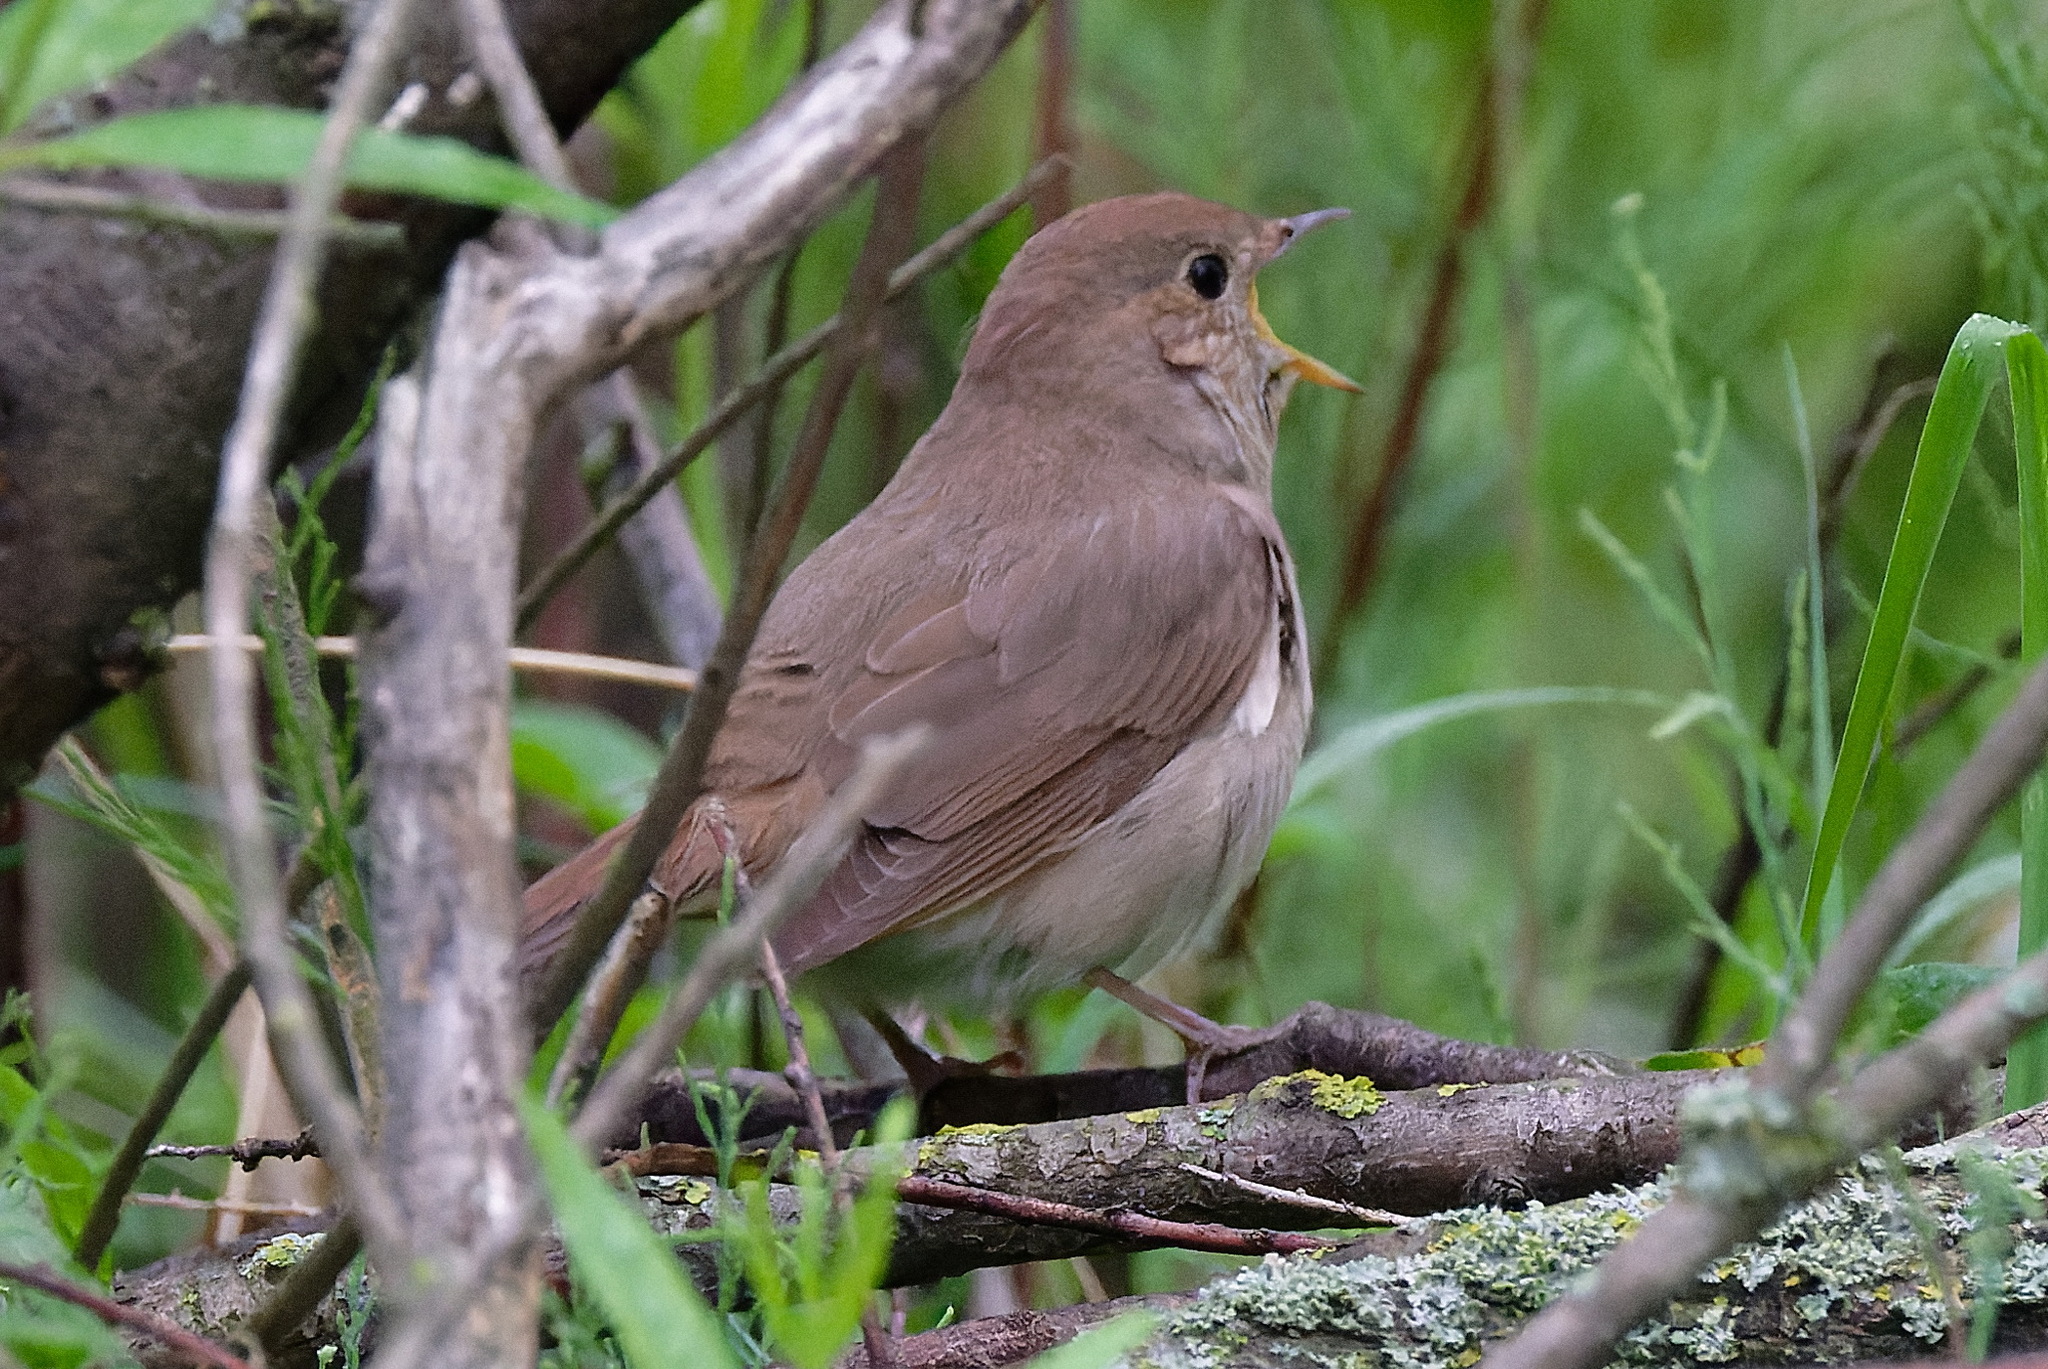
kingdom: Animalia
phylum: Chordata
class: Aves
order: Passeriformes
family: Muscicapidae
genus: Luscinia
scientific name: Luscinia luscinia
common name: Thrush nightingale
